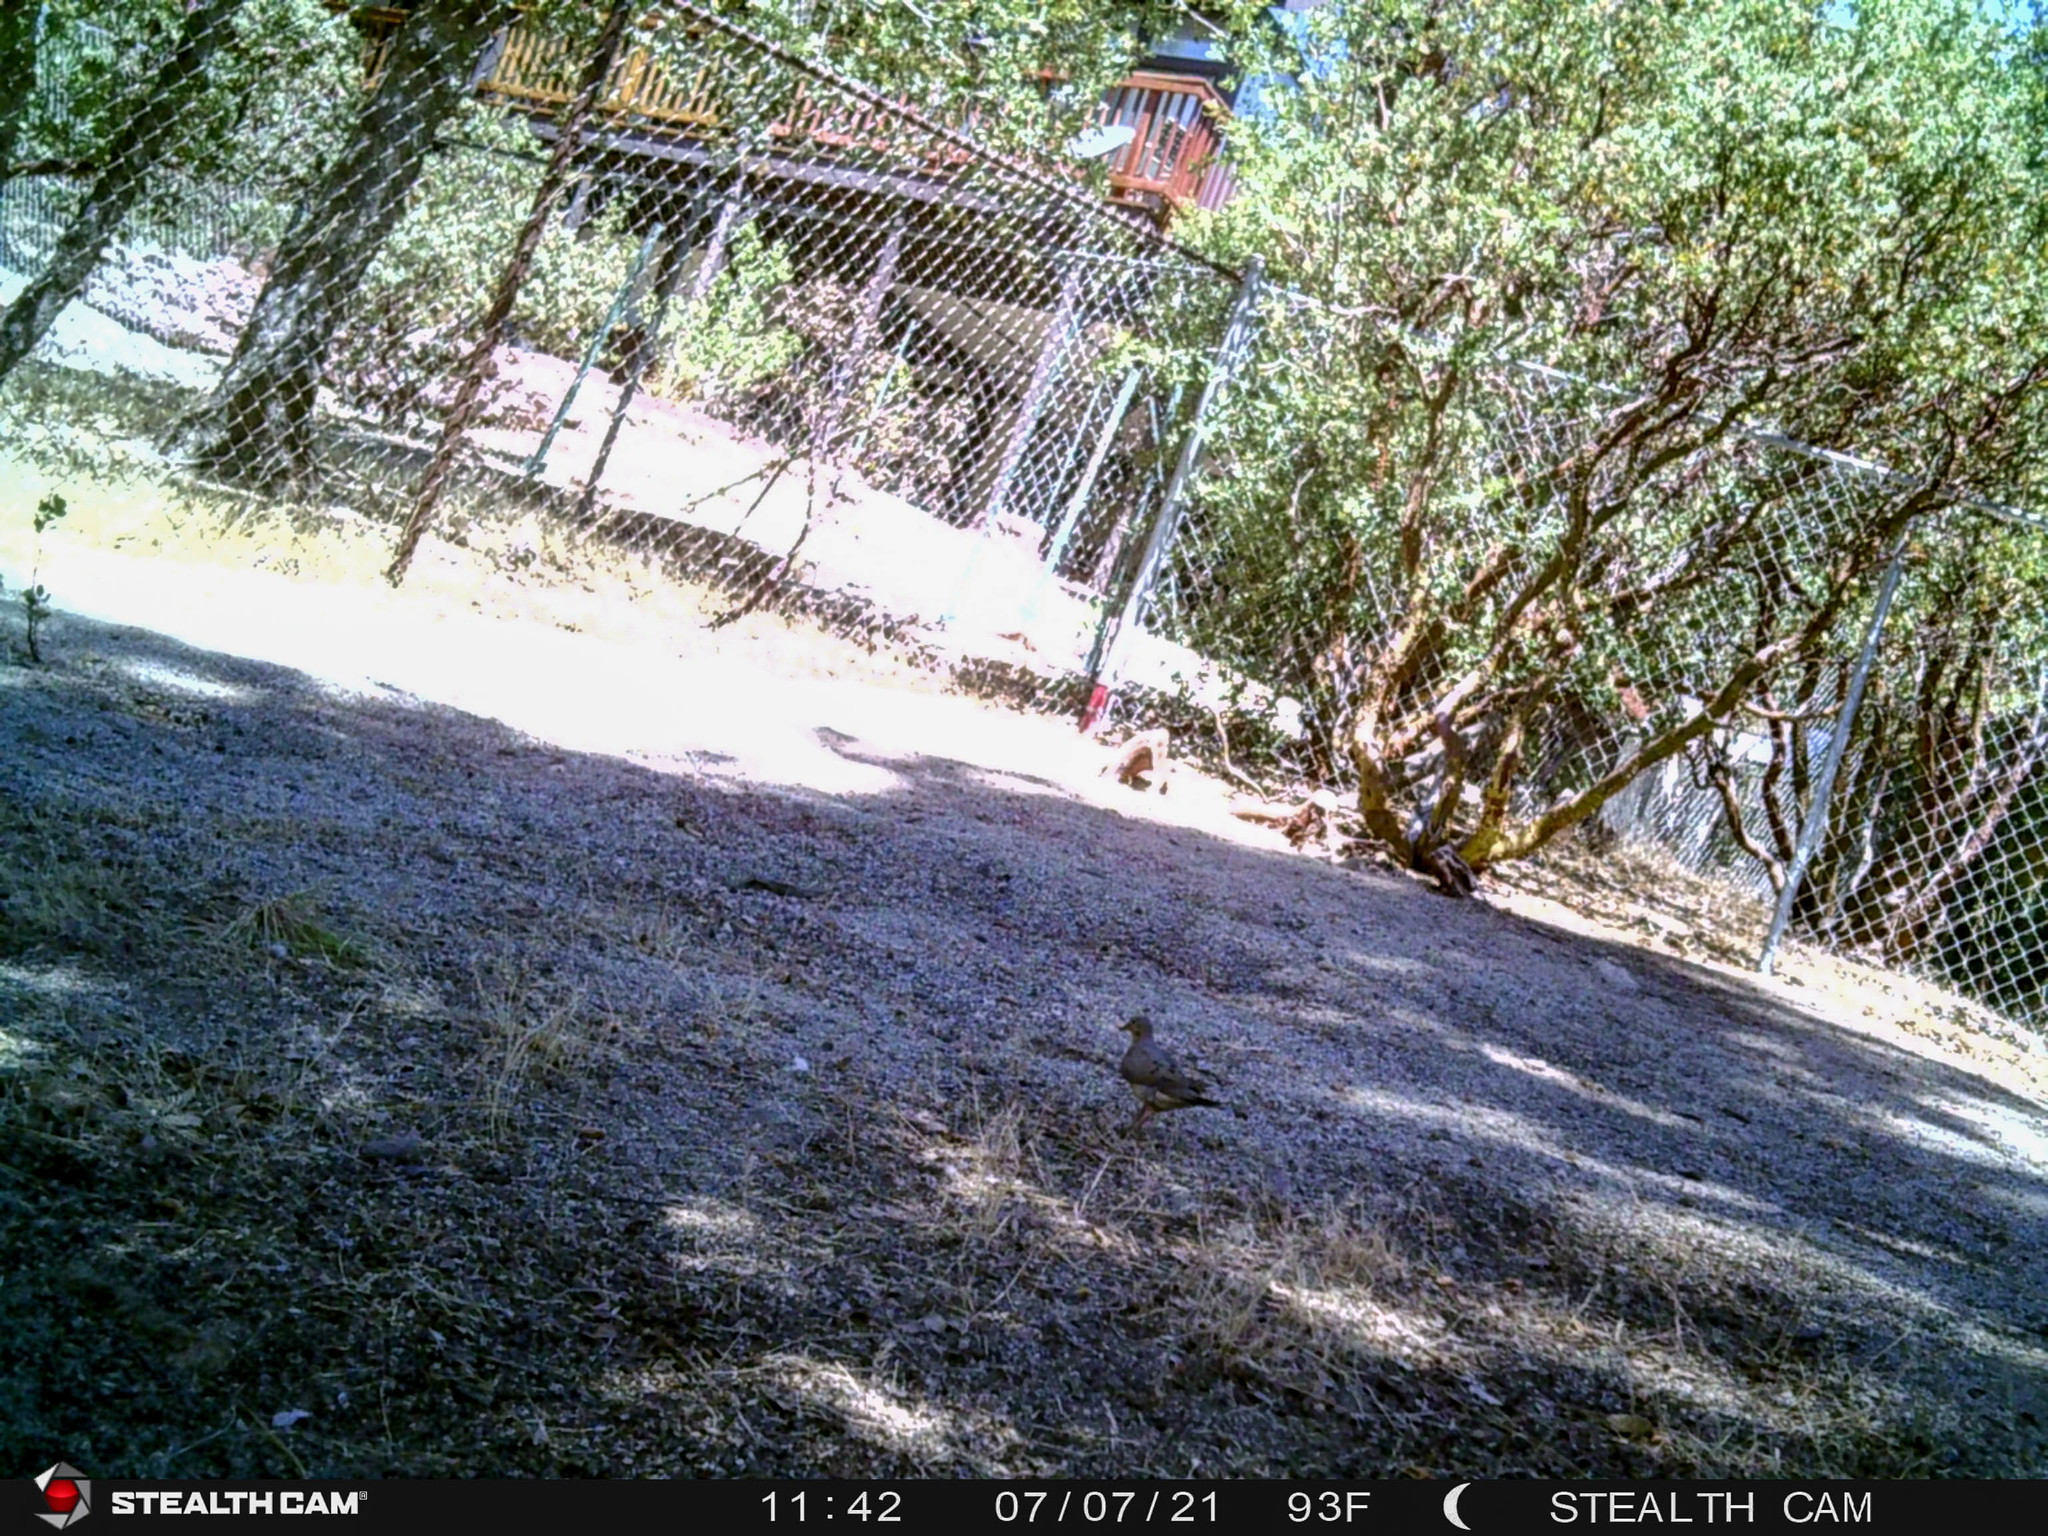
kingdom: Animalia
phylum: Chordata
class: Aves
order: Columbiformes
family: Columbidae
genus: Zenaida
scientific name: Zenaida macroura
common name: Mourning dove
